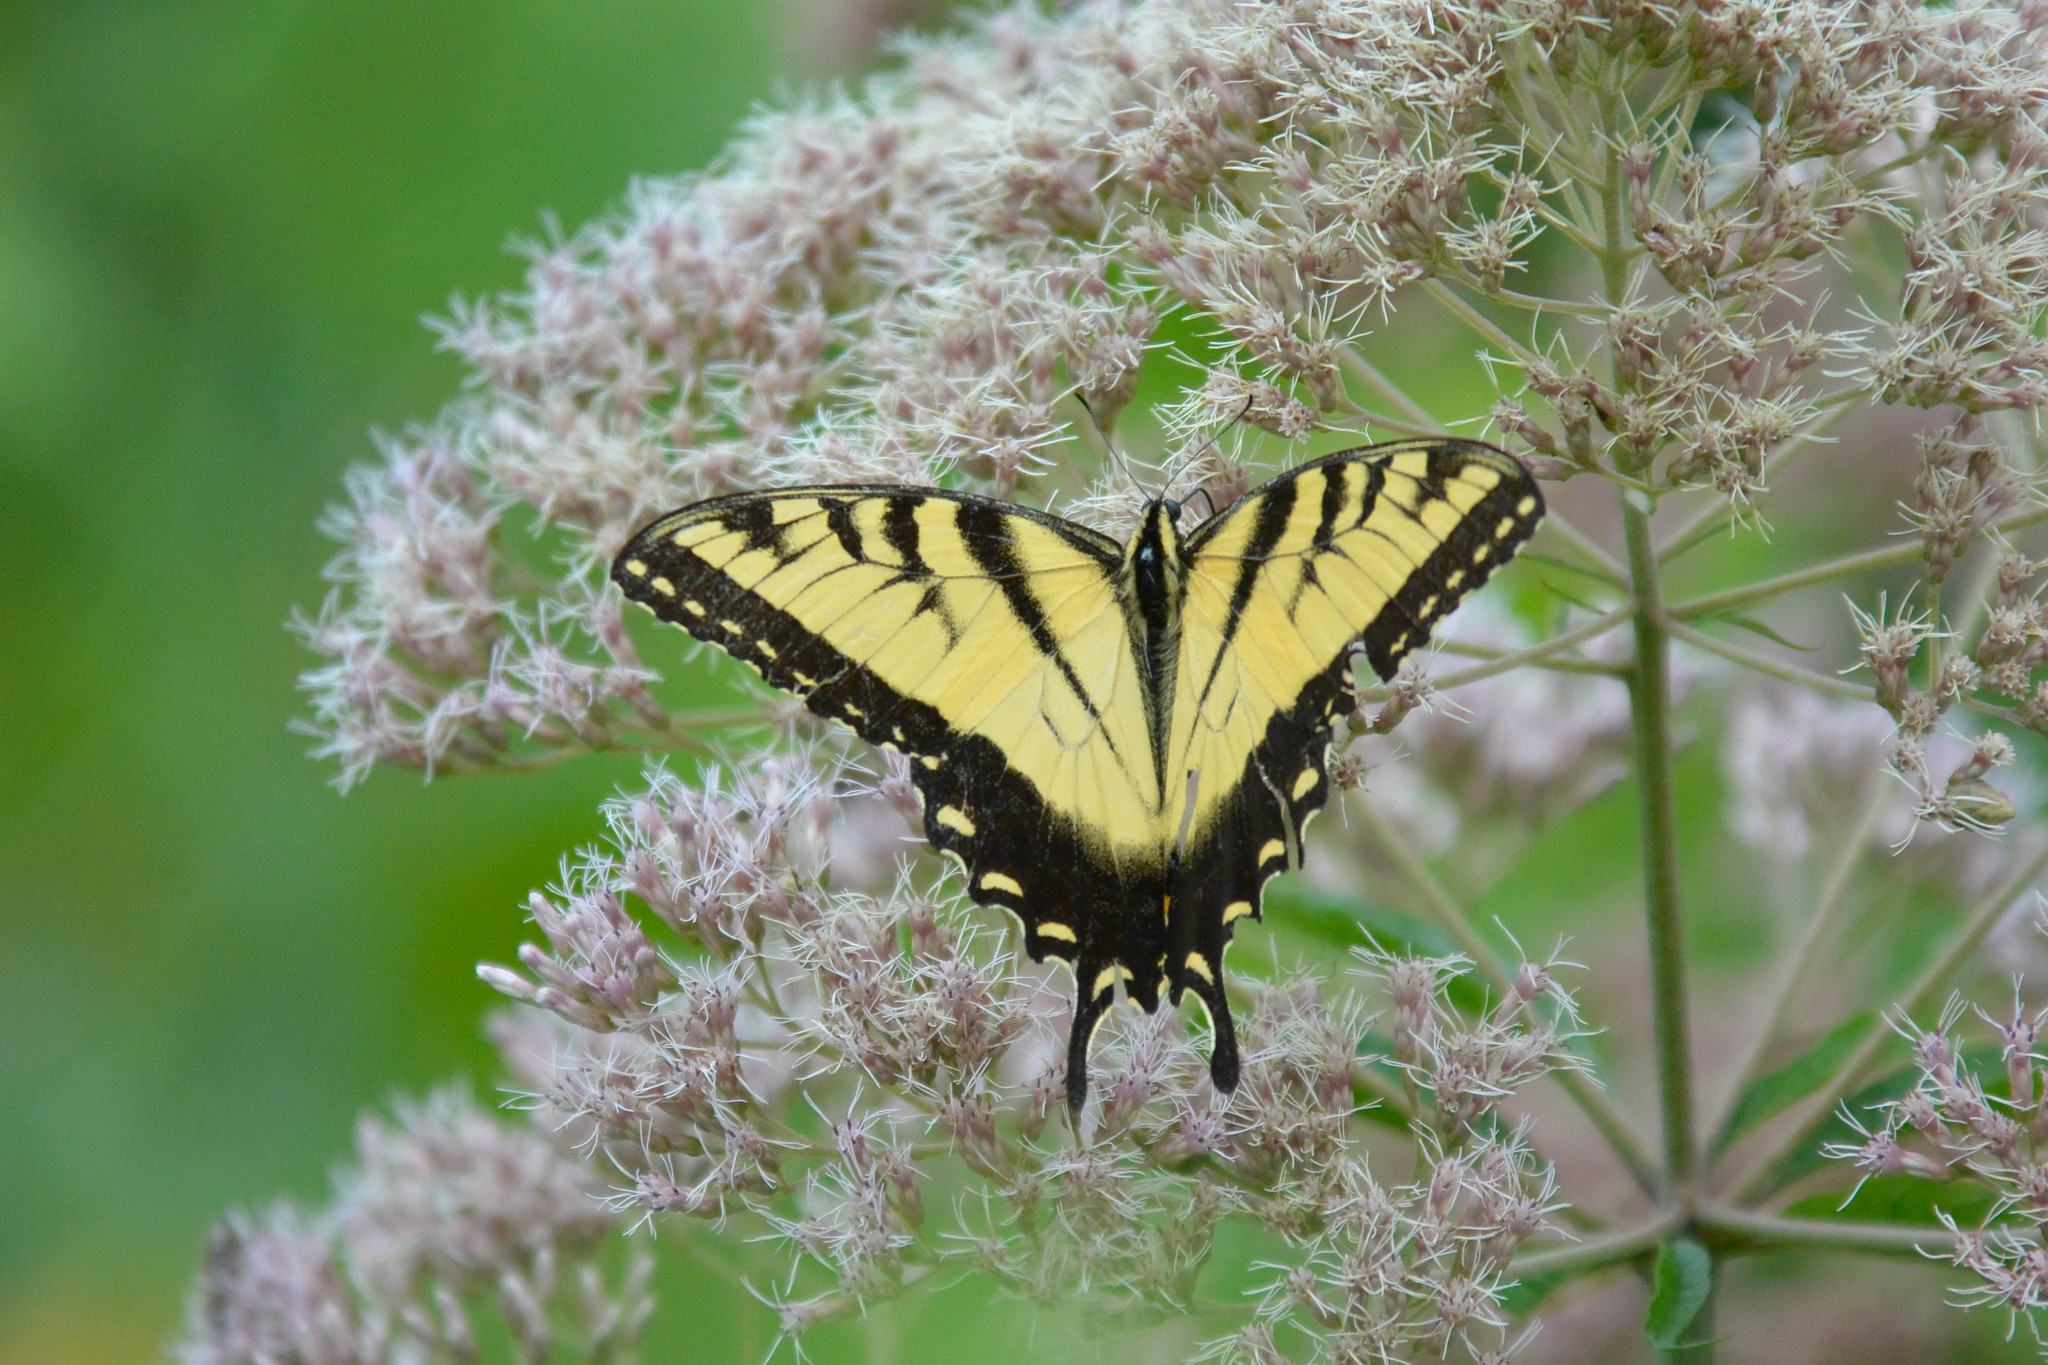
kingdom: Animalia
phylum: Arthropoda
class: Insecta
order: Lepidoptera
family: Papilionidae
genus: Papilio
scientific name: Papilio glaucus
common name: Tiger swallowtail
